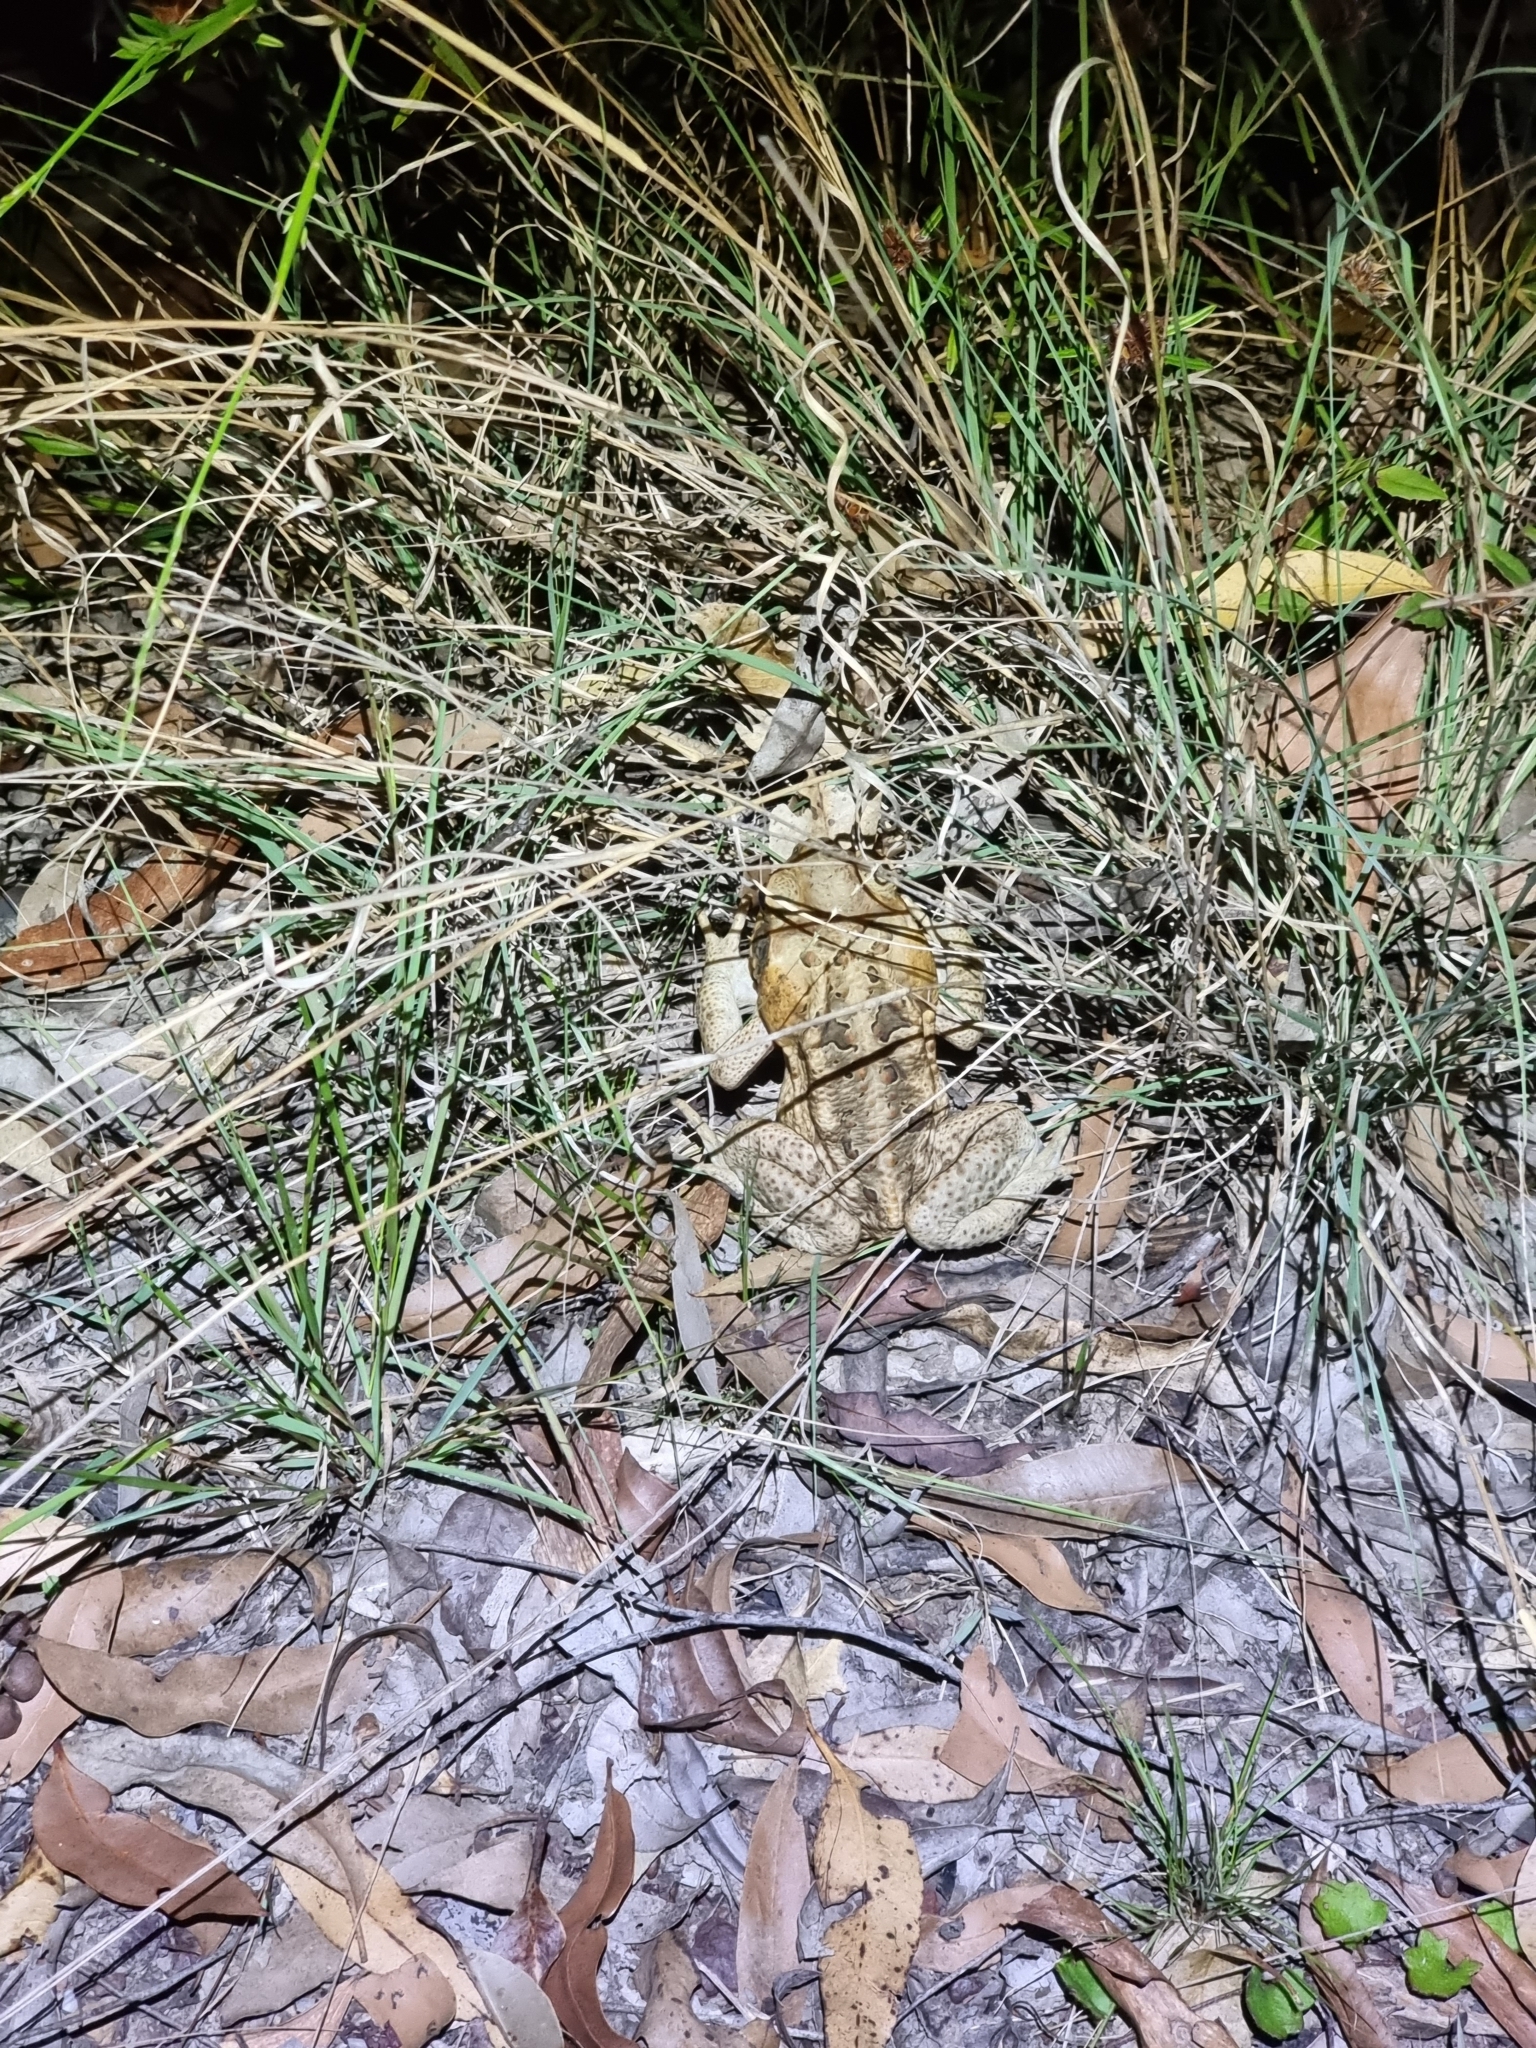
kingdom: Animalia
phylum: Chordata
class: Amphibia
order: Anura
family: Bufonidae
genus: Rhinella
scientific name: Rhinella marina
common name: Cane toad
